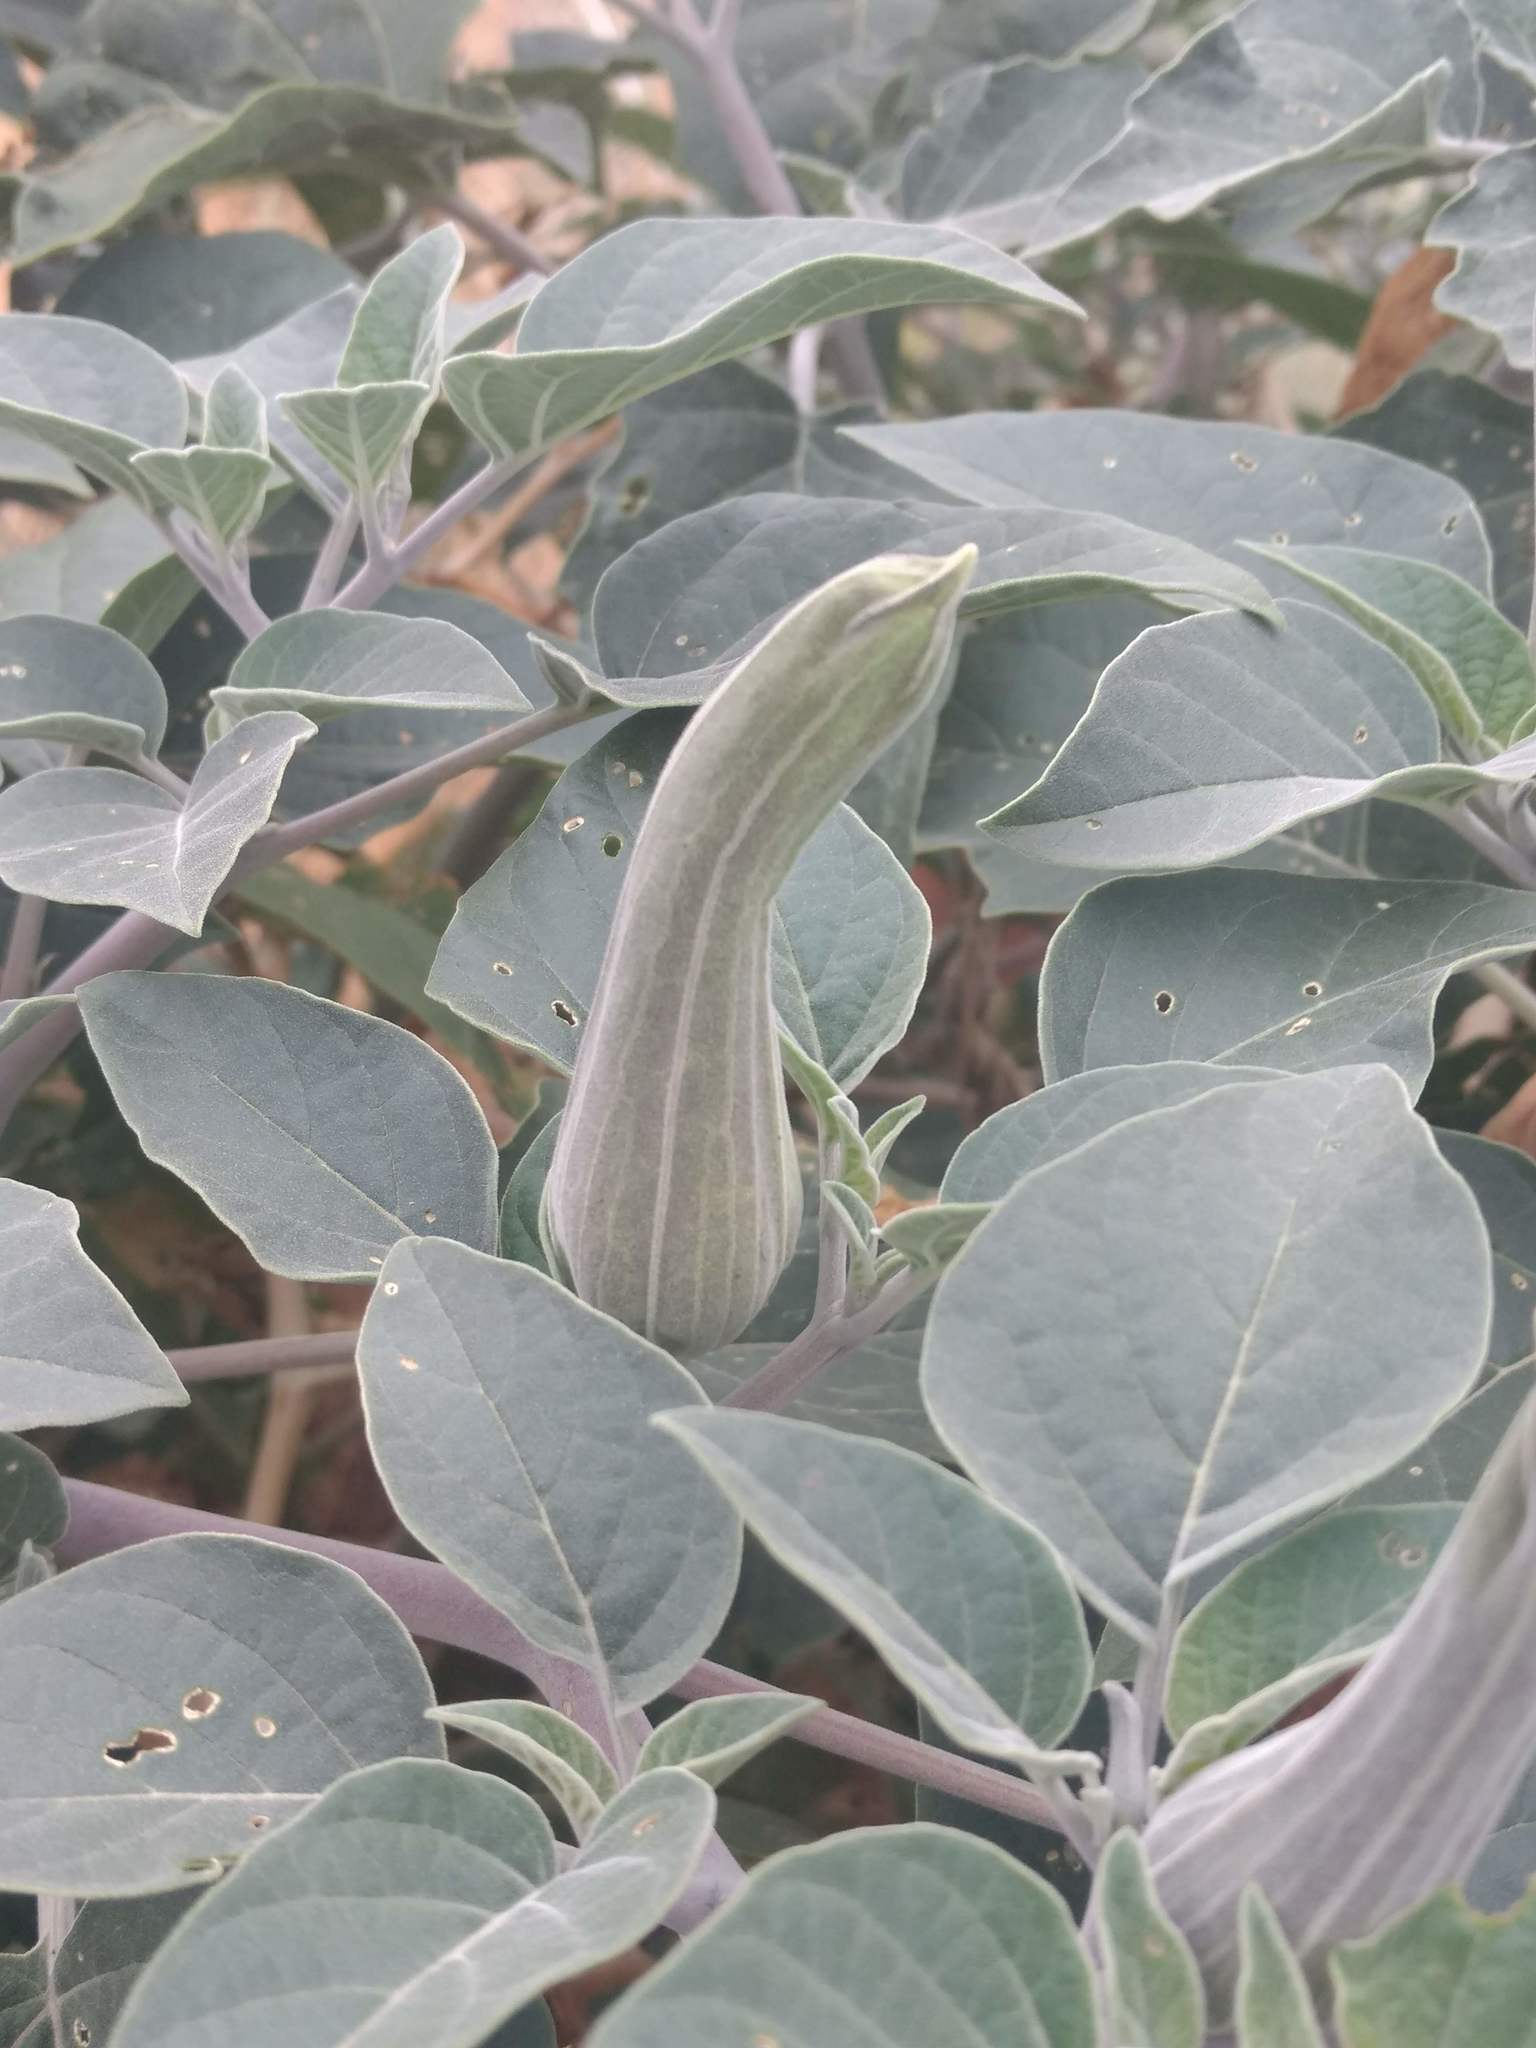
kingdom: Plantae
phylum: Tracheophyta
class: Magnoliopsida
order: Solanales
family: Solanaceae
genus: Datura
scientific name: Datura wrightii
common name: Sacred thorn-apple
